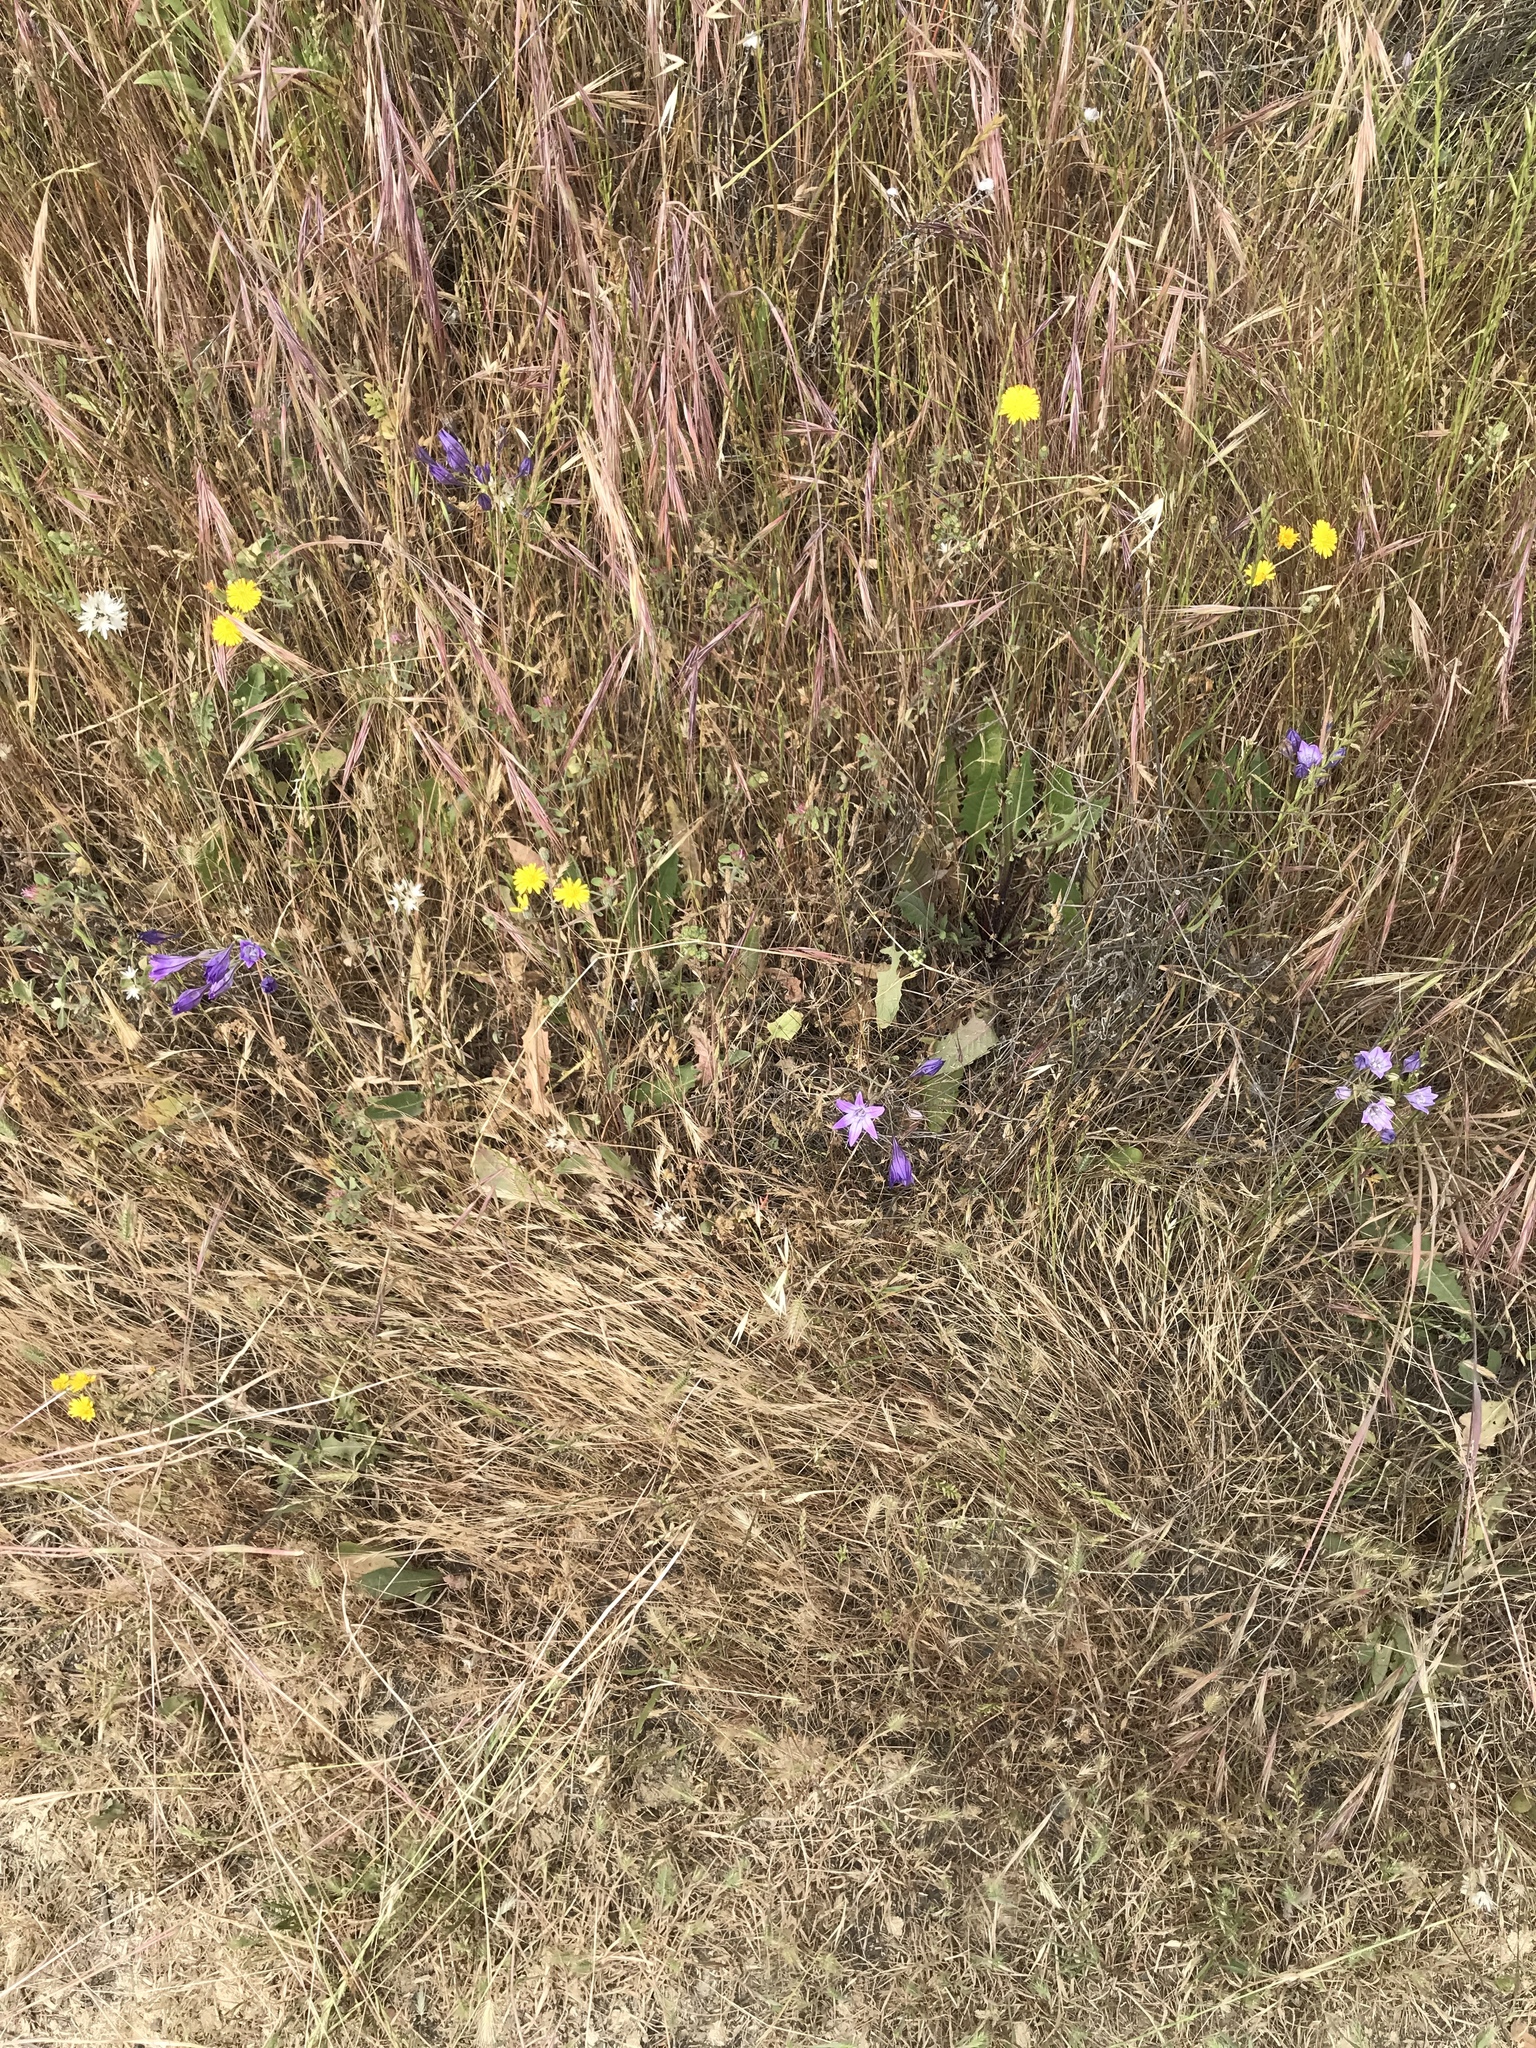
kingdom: Plantae
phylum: Tracheophyta
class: Liliopsida
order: Asparagales
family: Asparagaceae
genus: Triteleia
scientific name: Triteleia laxa
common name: Triplet-lily
